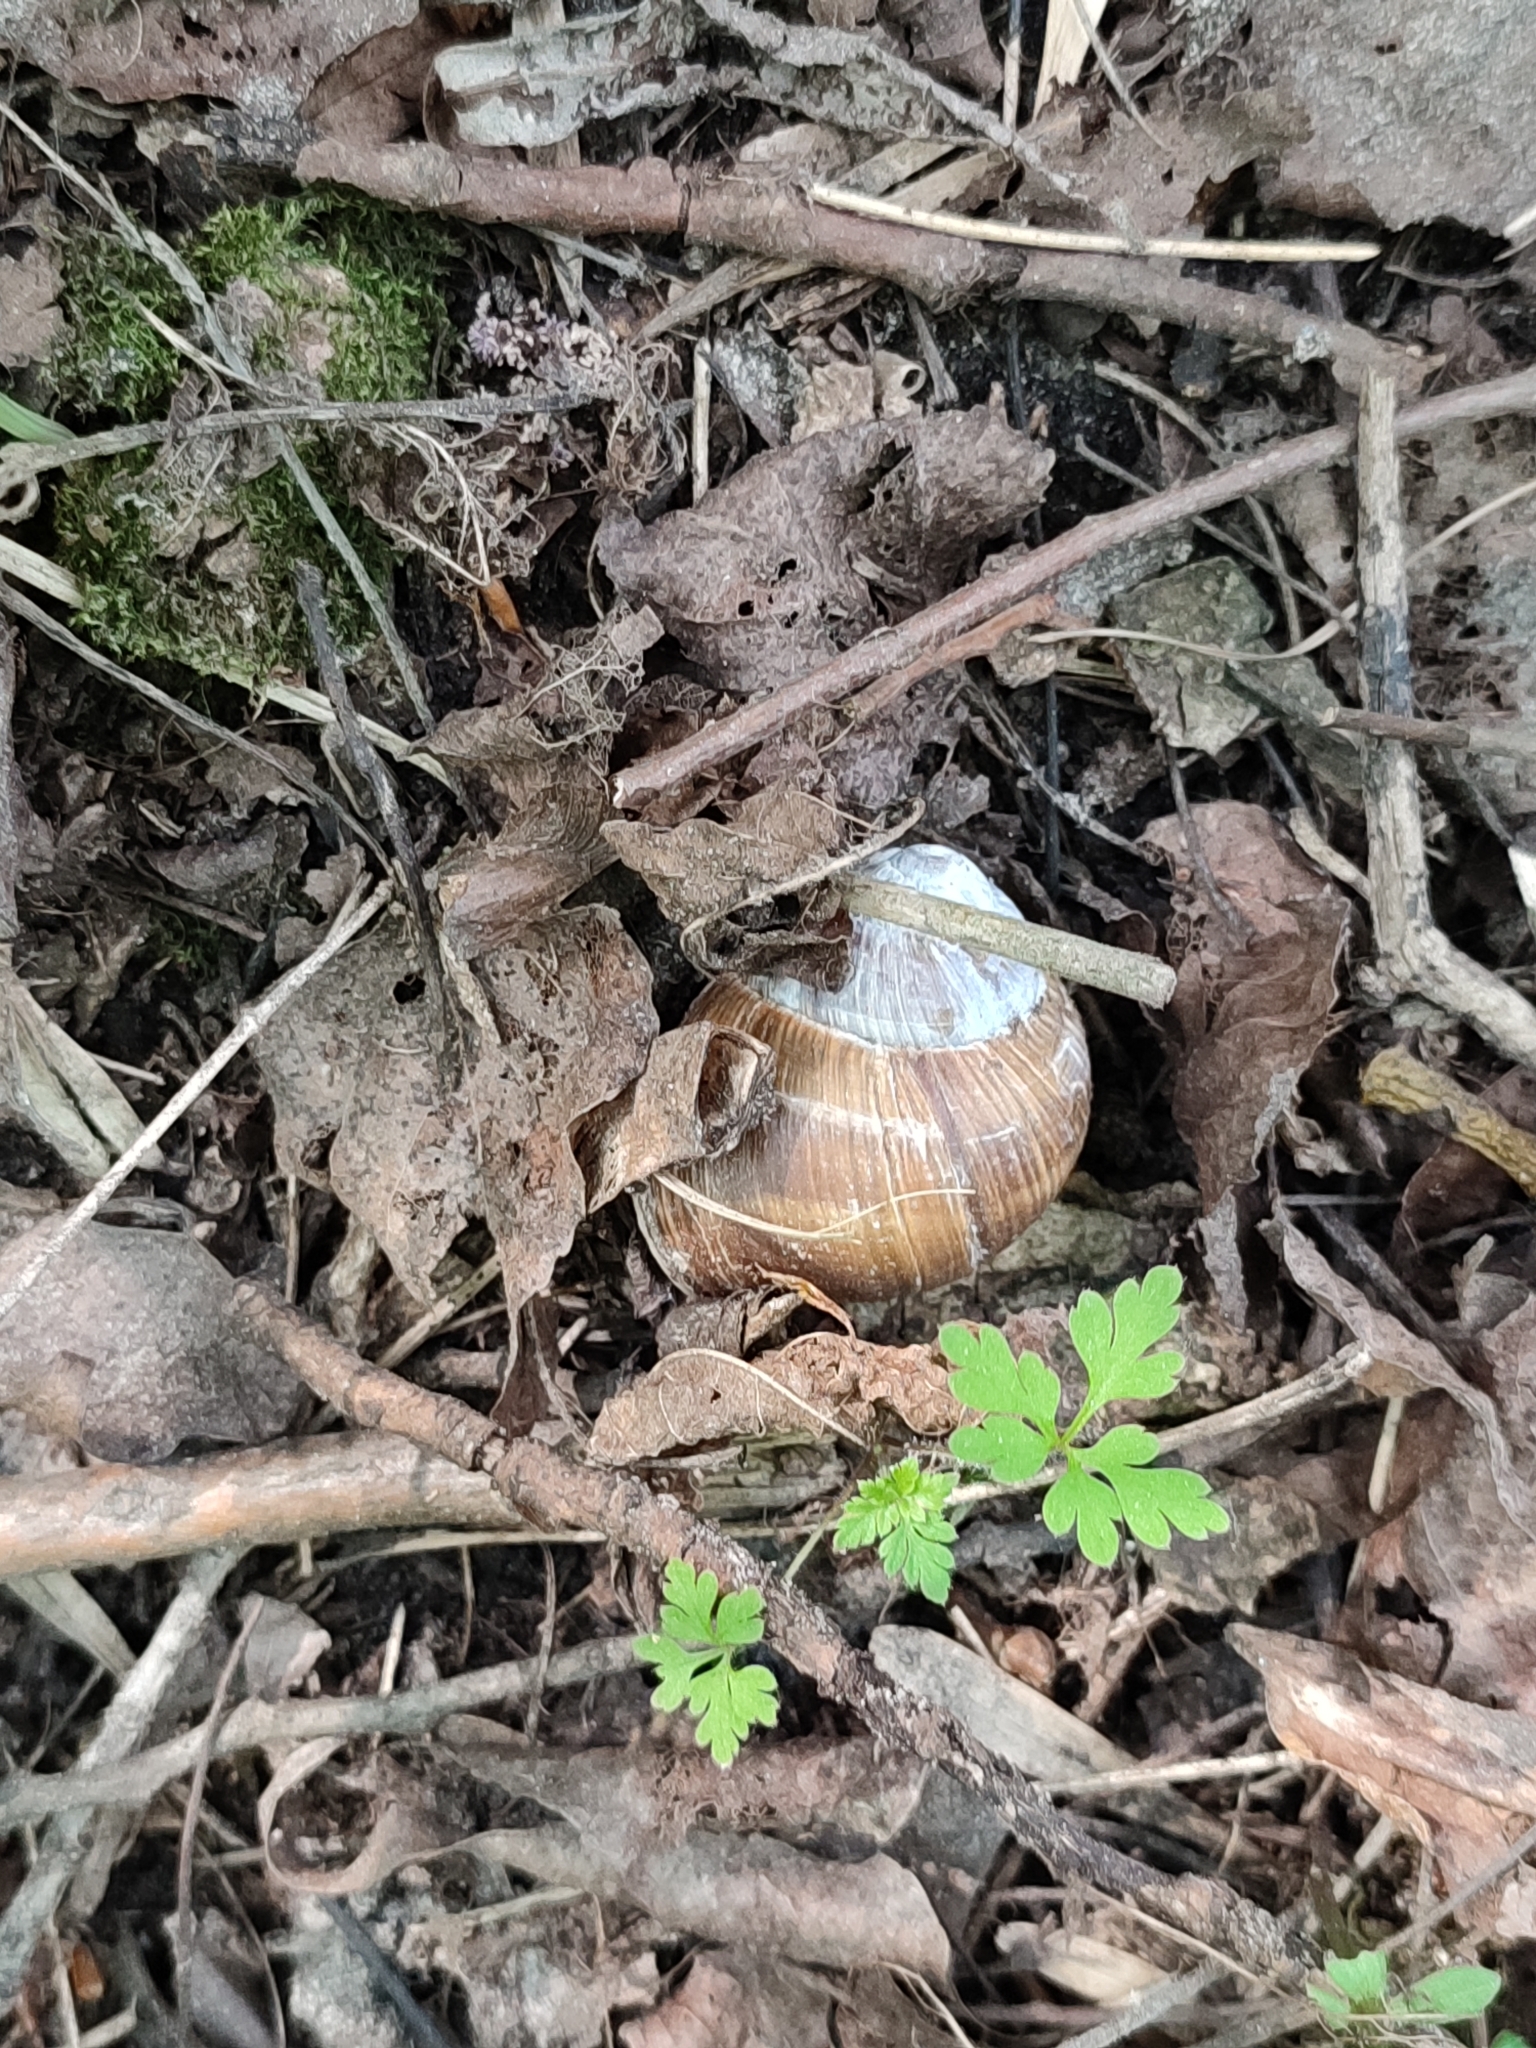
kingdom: Animalia
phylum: Mollusca
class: Gastropoda
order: Stylommatophora
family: Helicidae
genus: Helix
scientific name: Helix pomatia
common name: Roman snail
